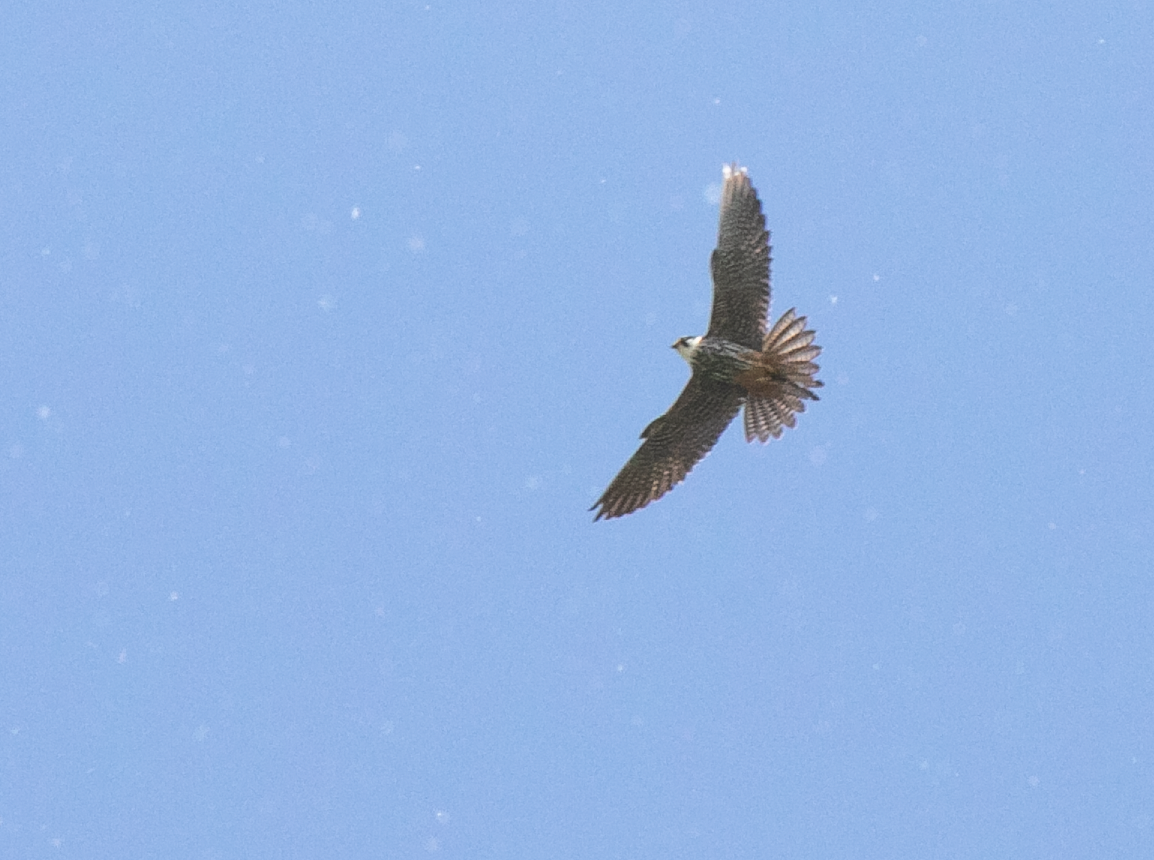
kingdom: Animalia
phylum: Chordata
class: Aves
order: Falconiformes
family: Falconidae
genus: Falco
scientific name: Falco subbuteo
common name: Eurasian hobby
